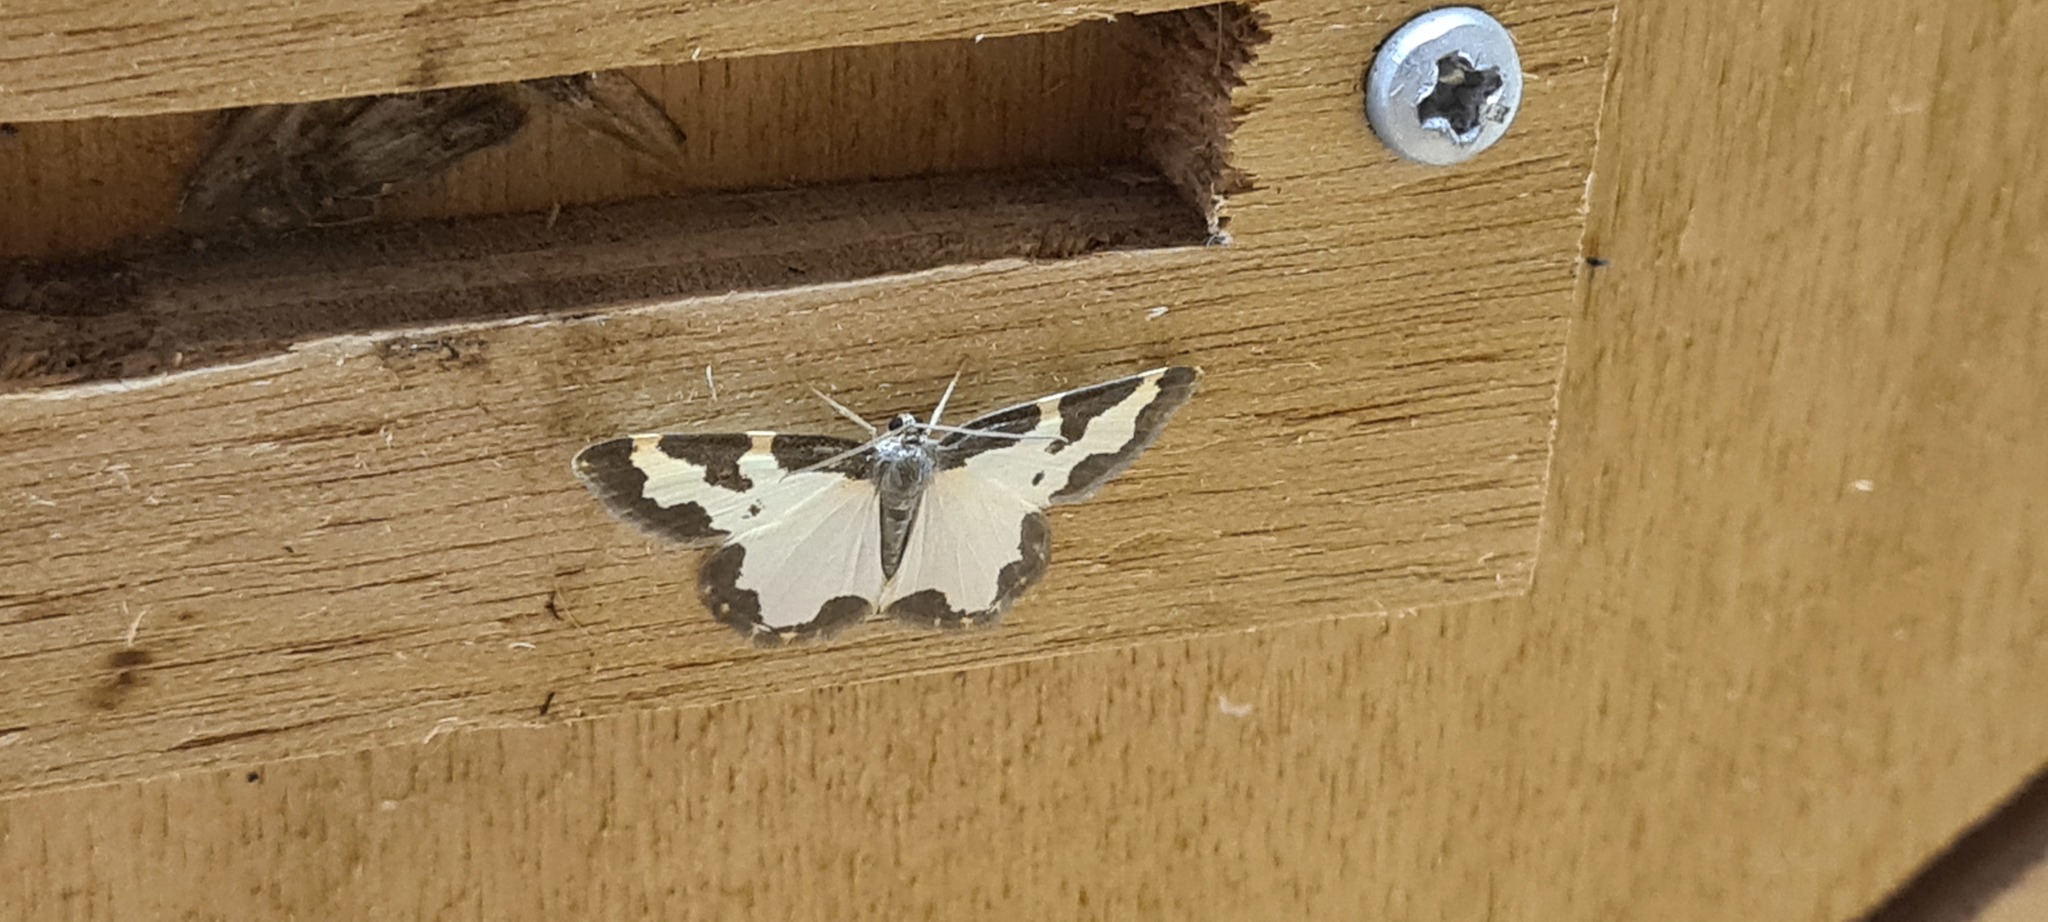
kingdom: Animalia
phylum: Arthropoda
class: Insecta
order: Lepidoptera
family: Geometridae
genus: Lomaspilis
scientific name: Lomaspilis marginata
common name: Clouded border
